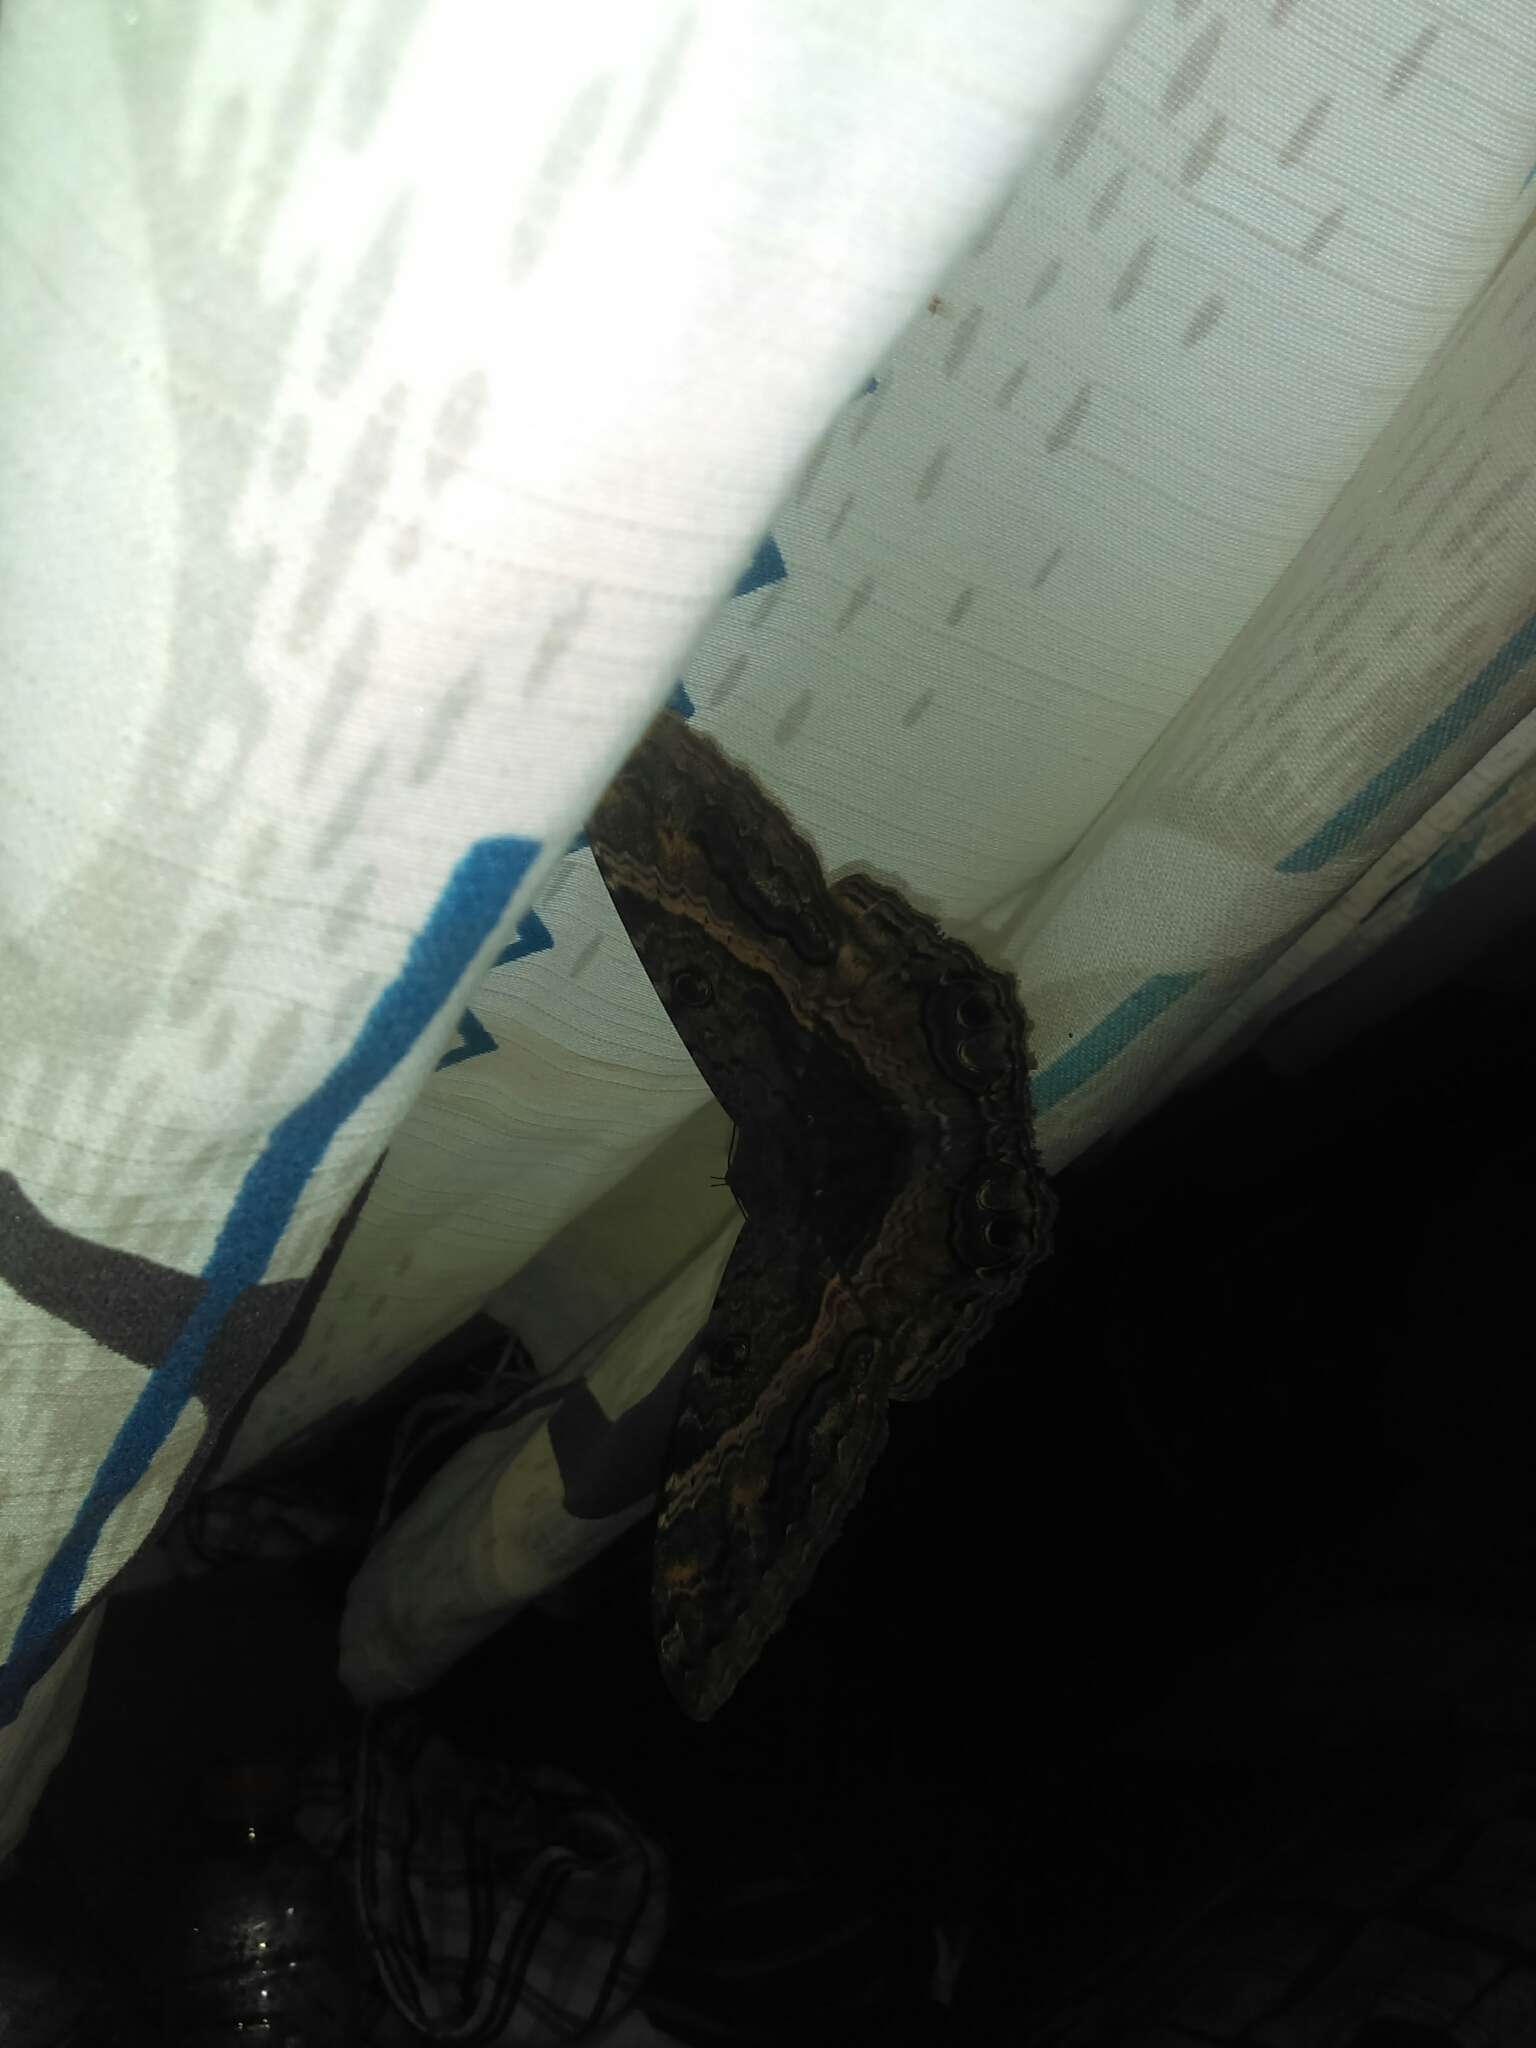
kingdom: Animalia
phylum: Arthropoda
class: Insecta
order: Lepidoptera
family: Erebidae
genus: Ascalapha
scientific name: Ascalapha odorata
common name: Black witch
